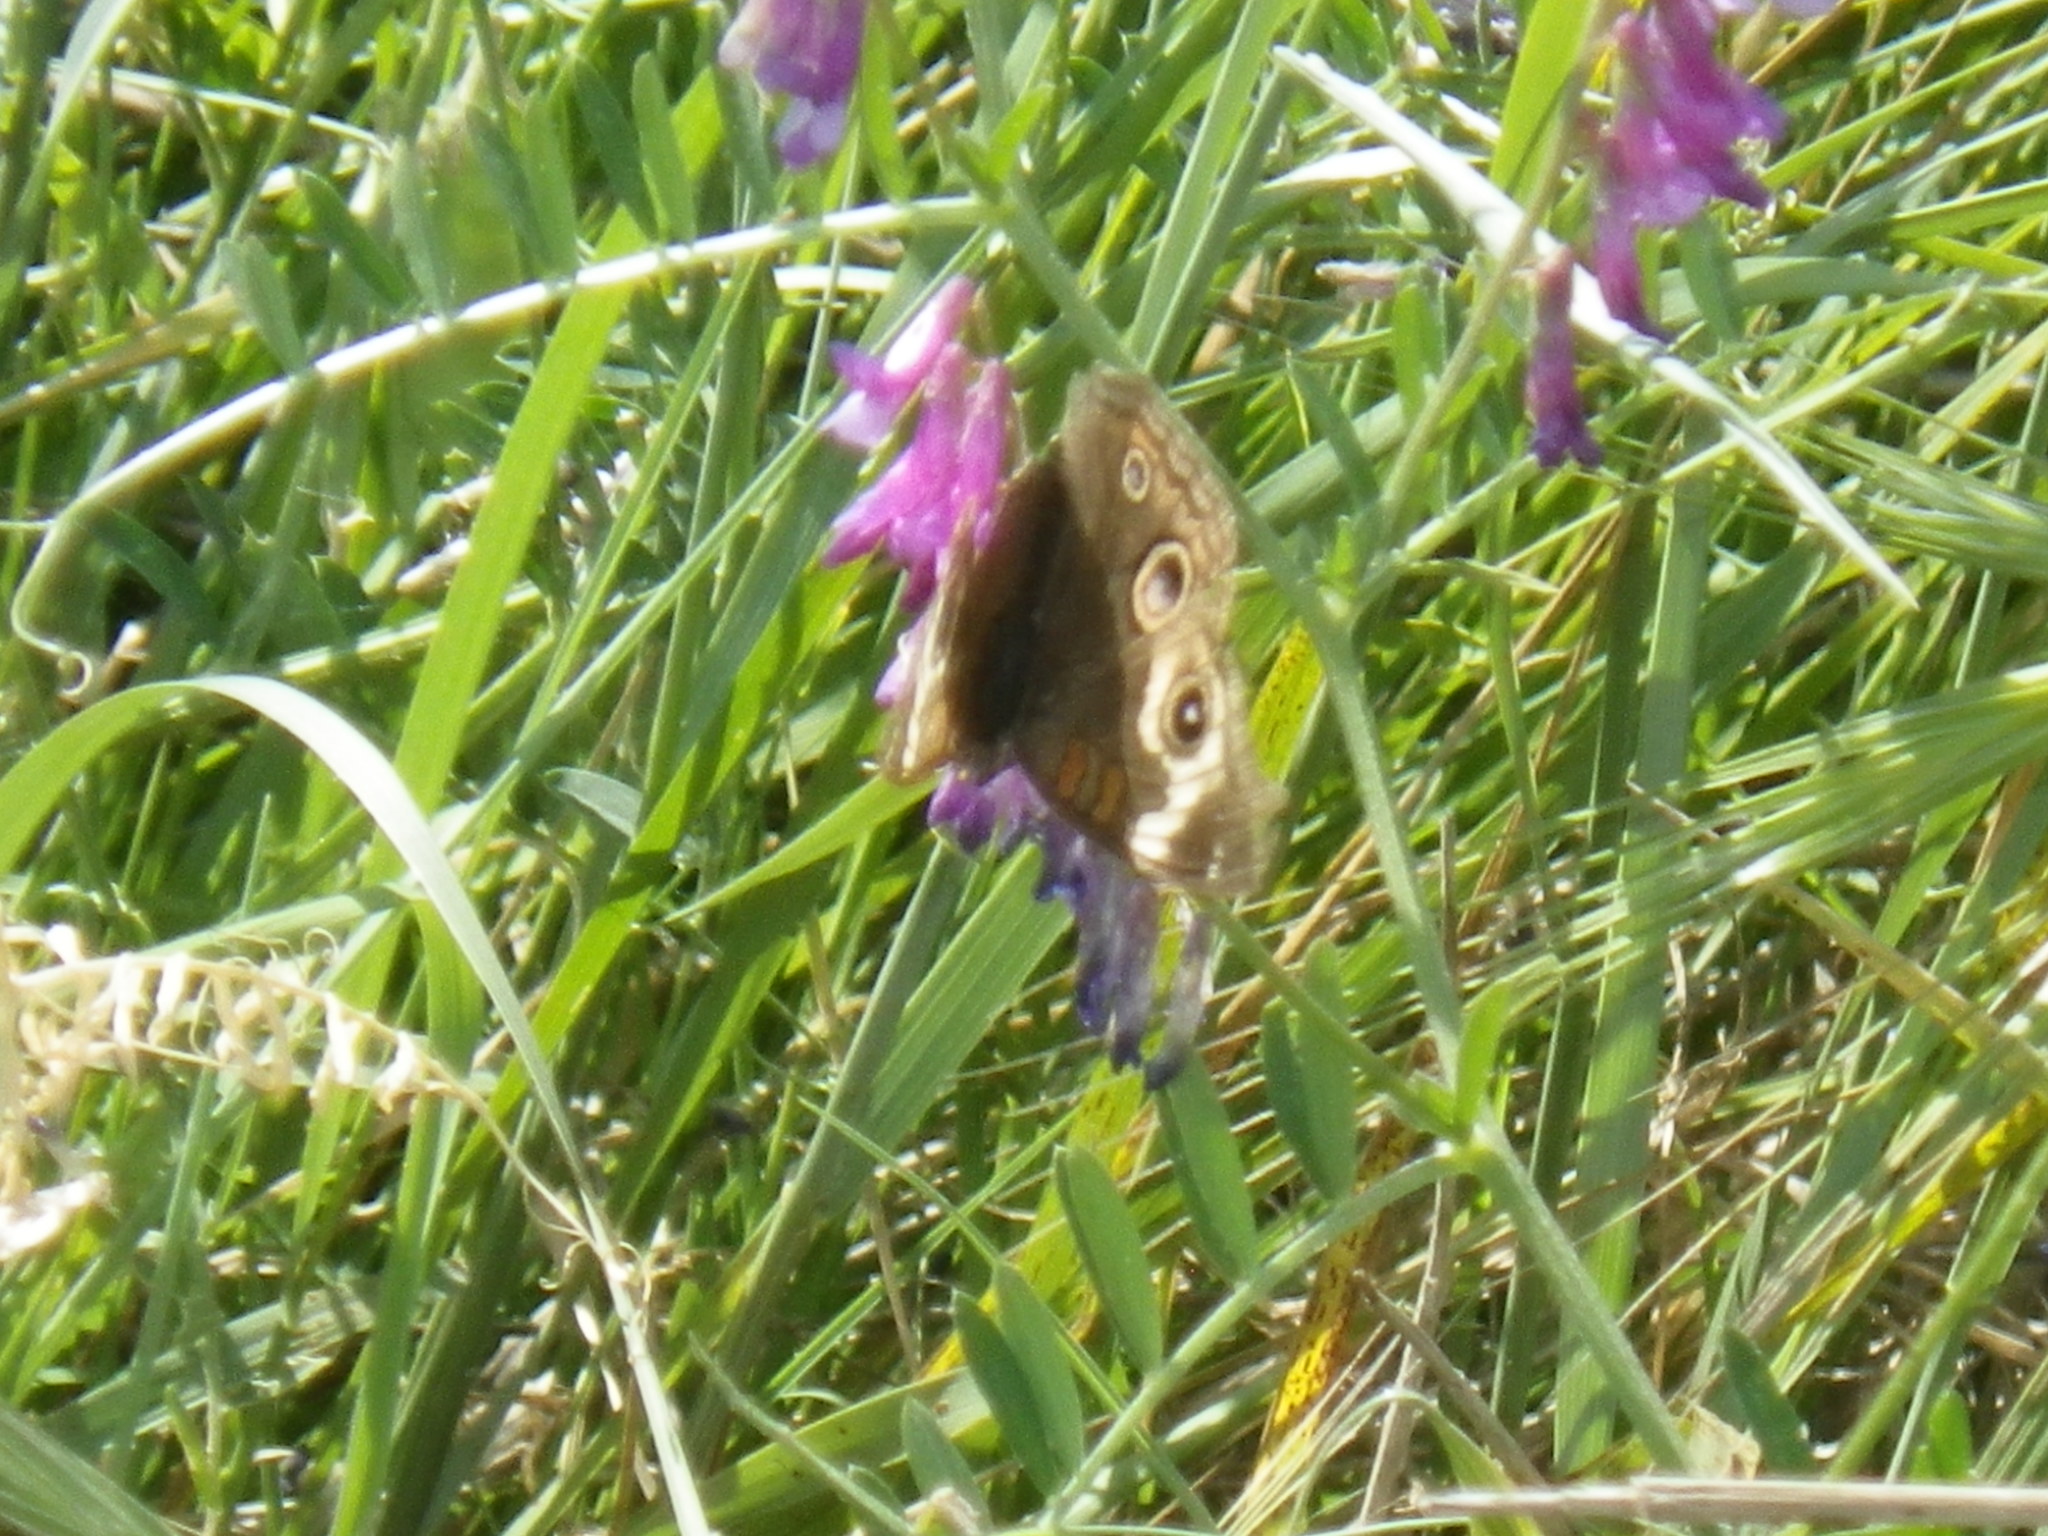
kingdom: Animalia
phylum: Arthropoda
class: Insecta
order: Lepidoptera
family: Nymphalidae
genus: Junonia
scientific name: Junonia grisea
